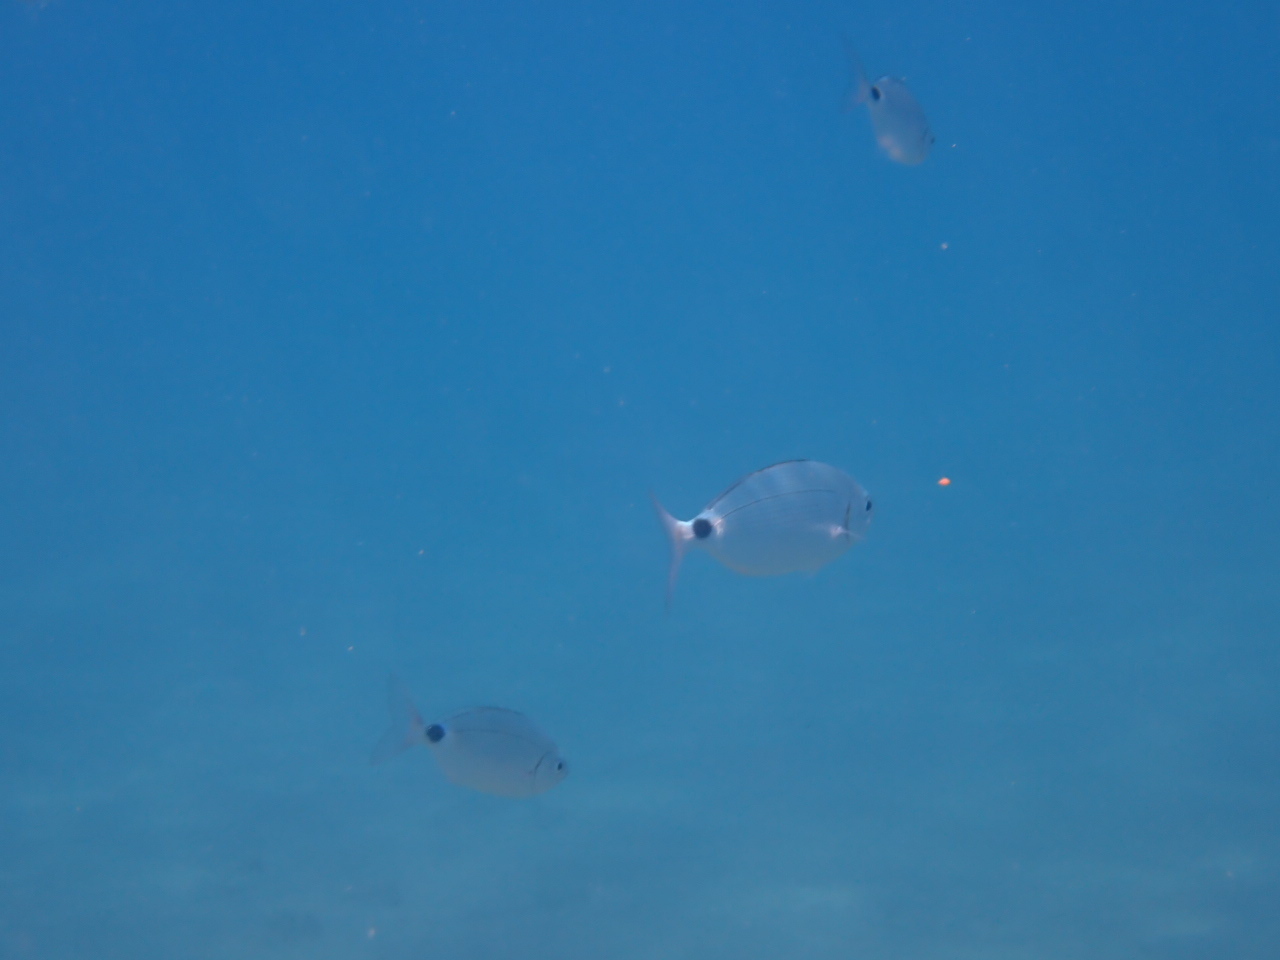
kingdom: Animalia
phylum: Chordata
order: Perciformes
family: Sparidae
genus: Oblada
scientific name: Oblada melanura
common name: Saddled seabream
